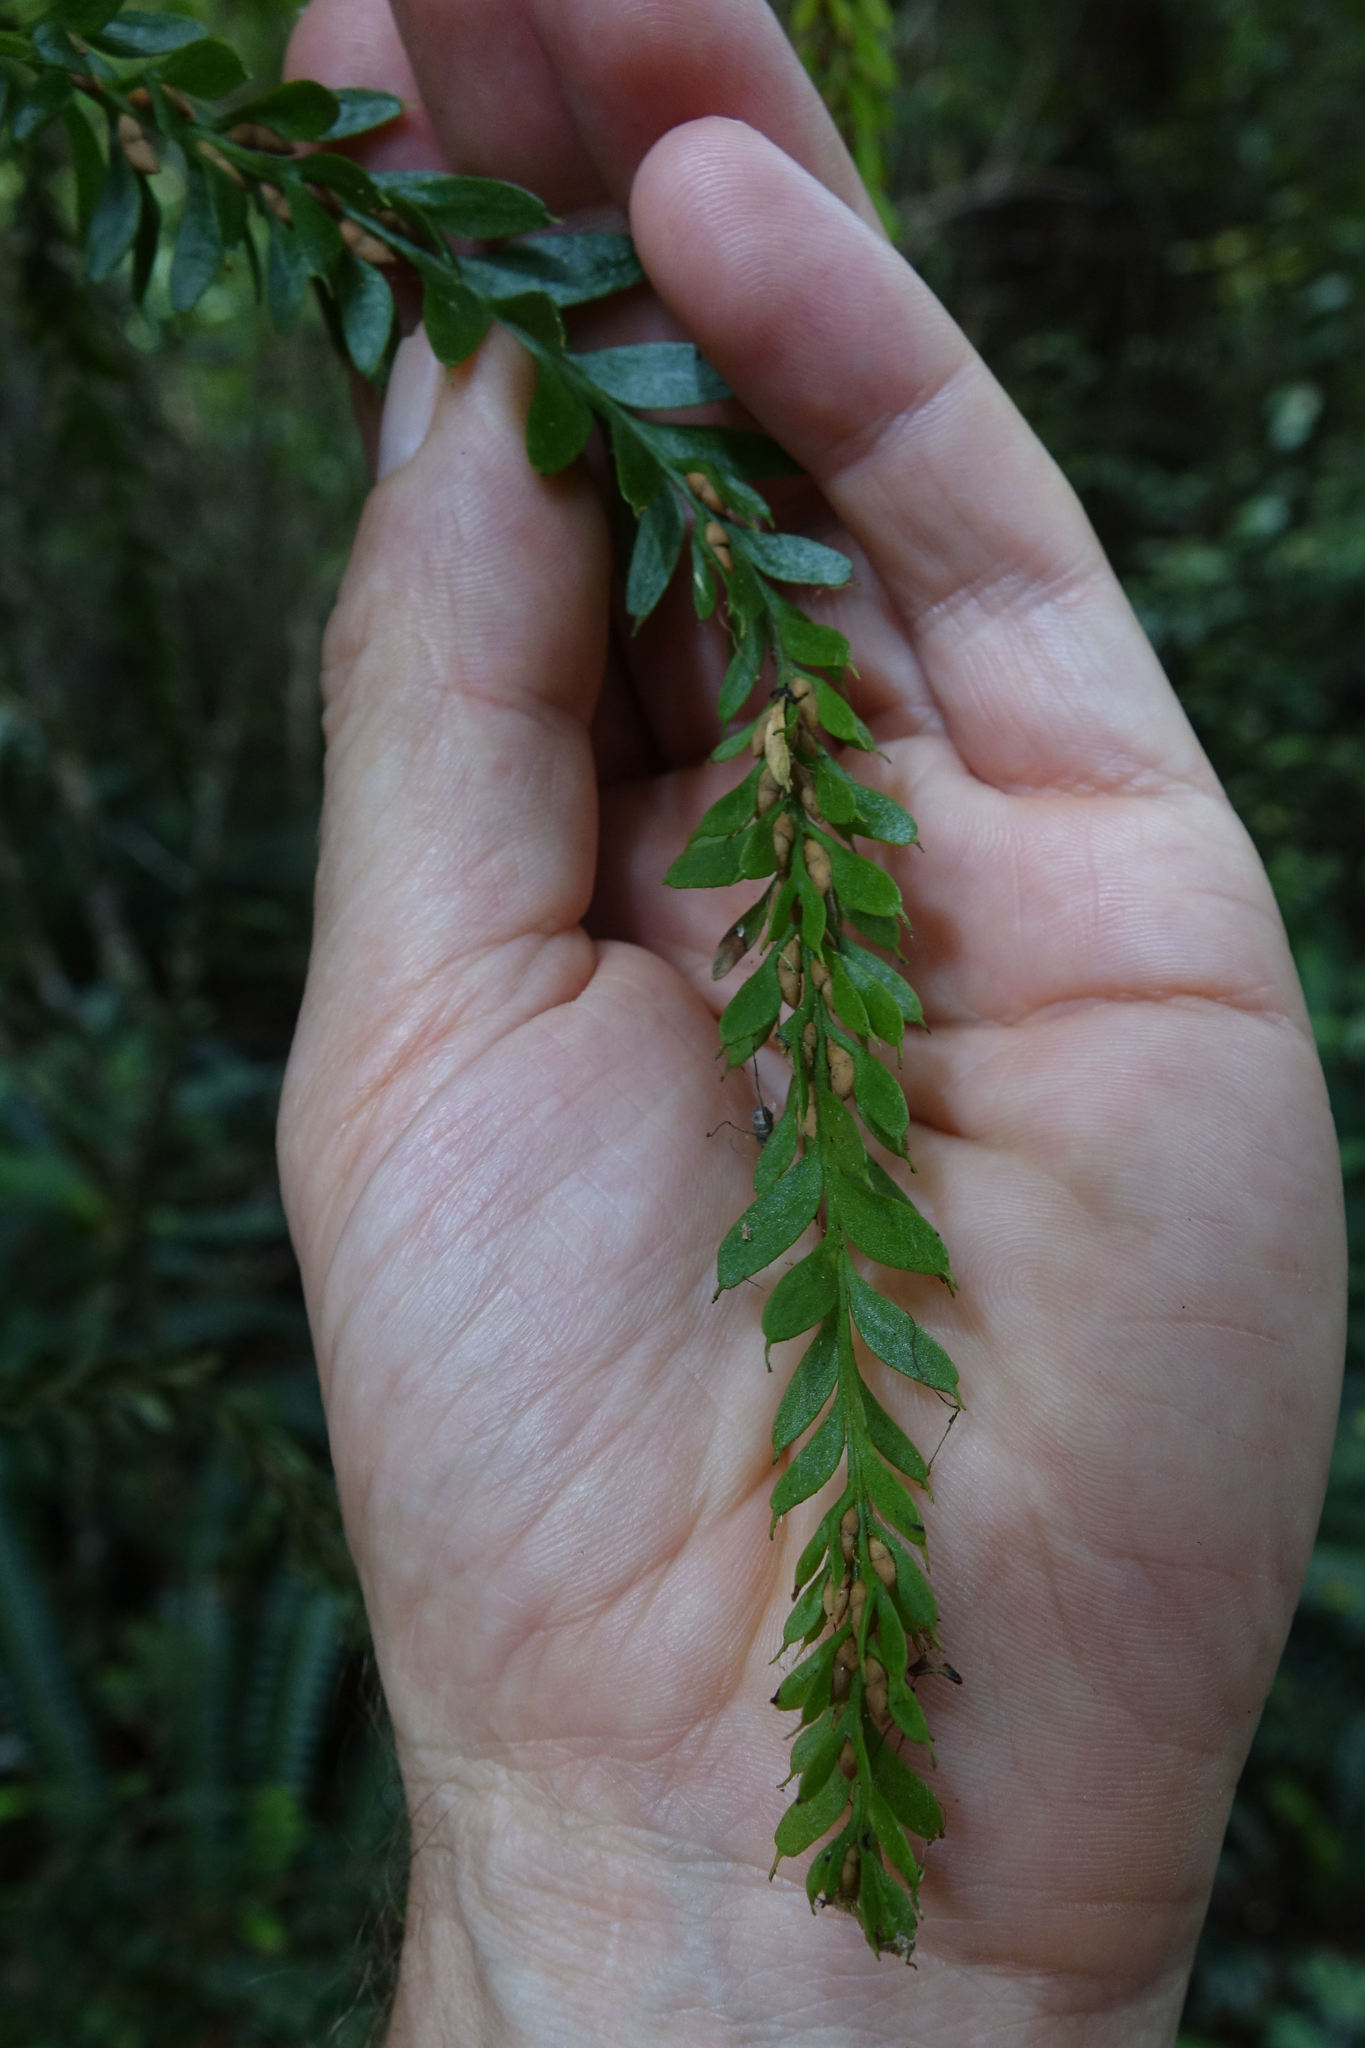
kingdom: Plantae
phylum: Tracheophyta
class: Polypodiopsida
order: Psilotales
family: Psilotaceae
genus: Tmesipteris
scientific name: Tmesipteris tannensis
